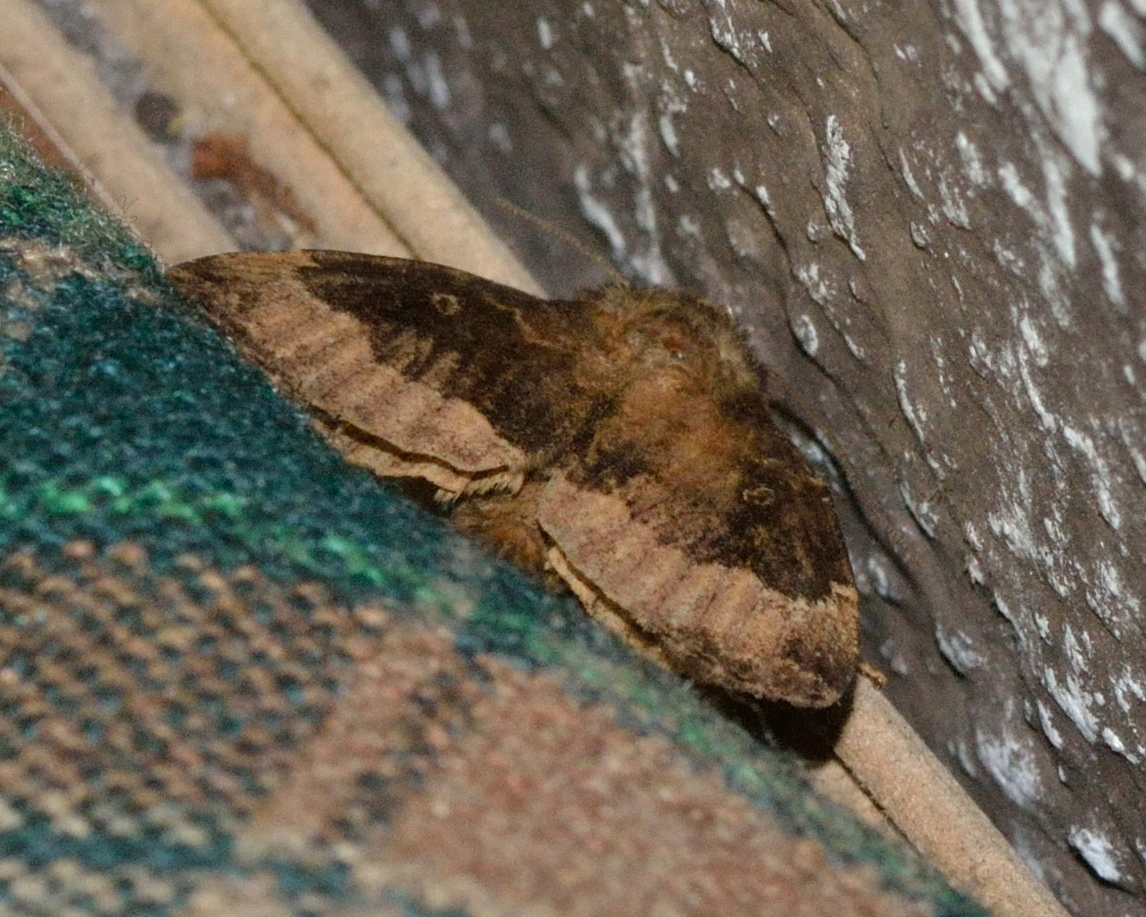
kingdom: Animalia
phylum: Arthropoda
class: Insecta
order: Lepidoptera
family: Noctuidae
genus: Amphipyra
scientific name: Amphipyra perflua
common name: Larger pale-tipped black moth
